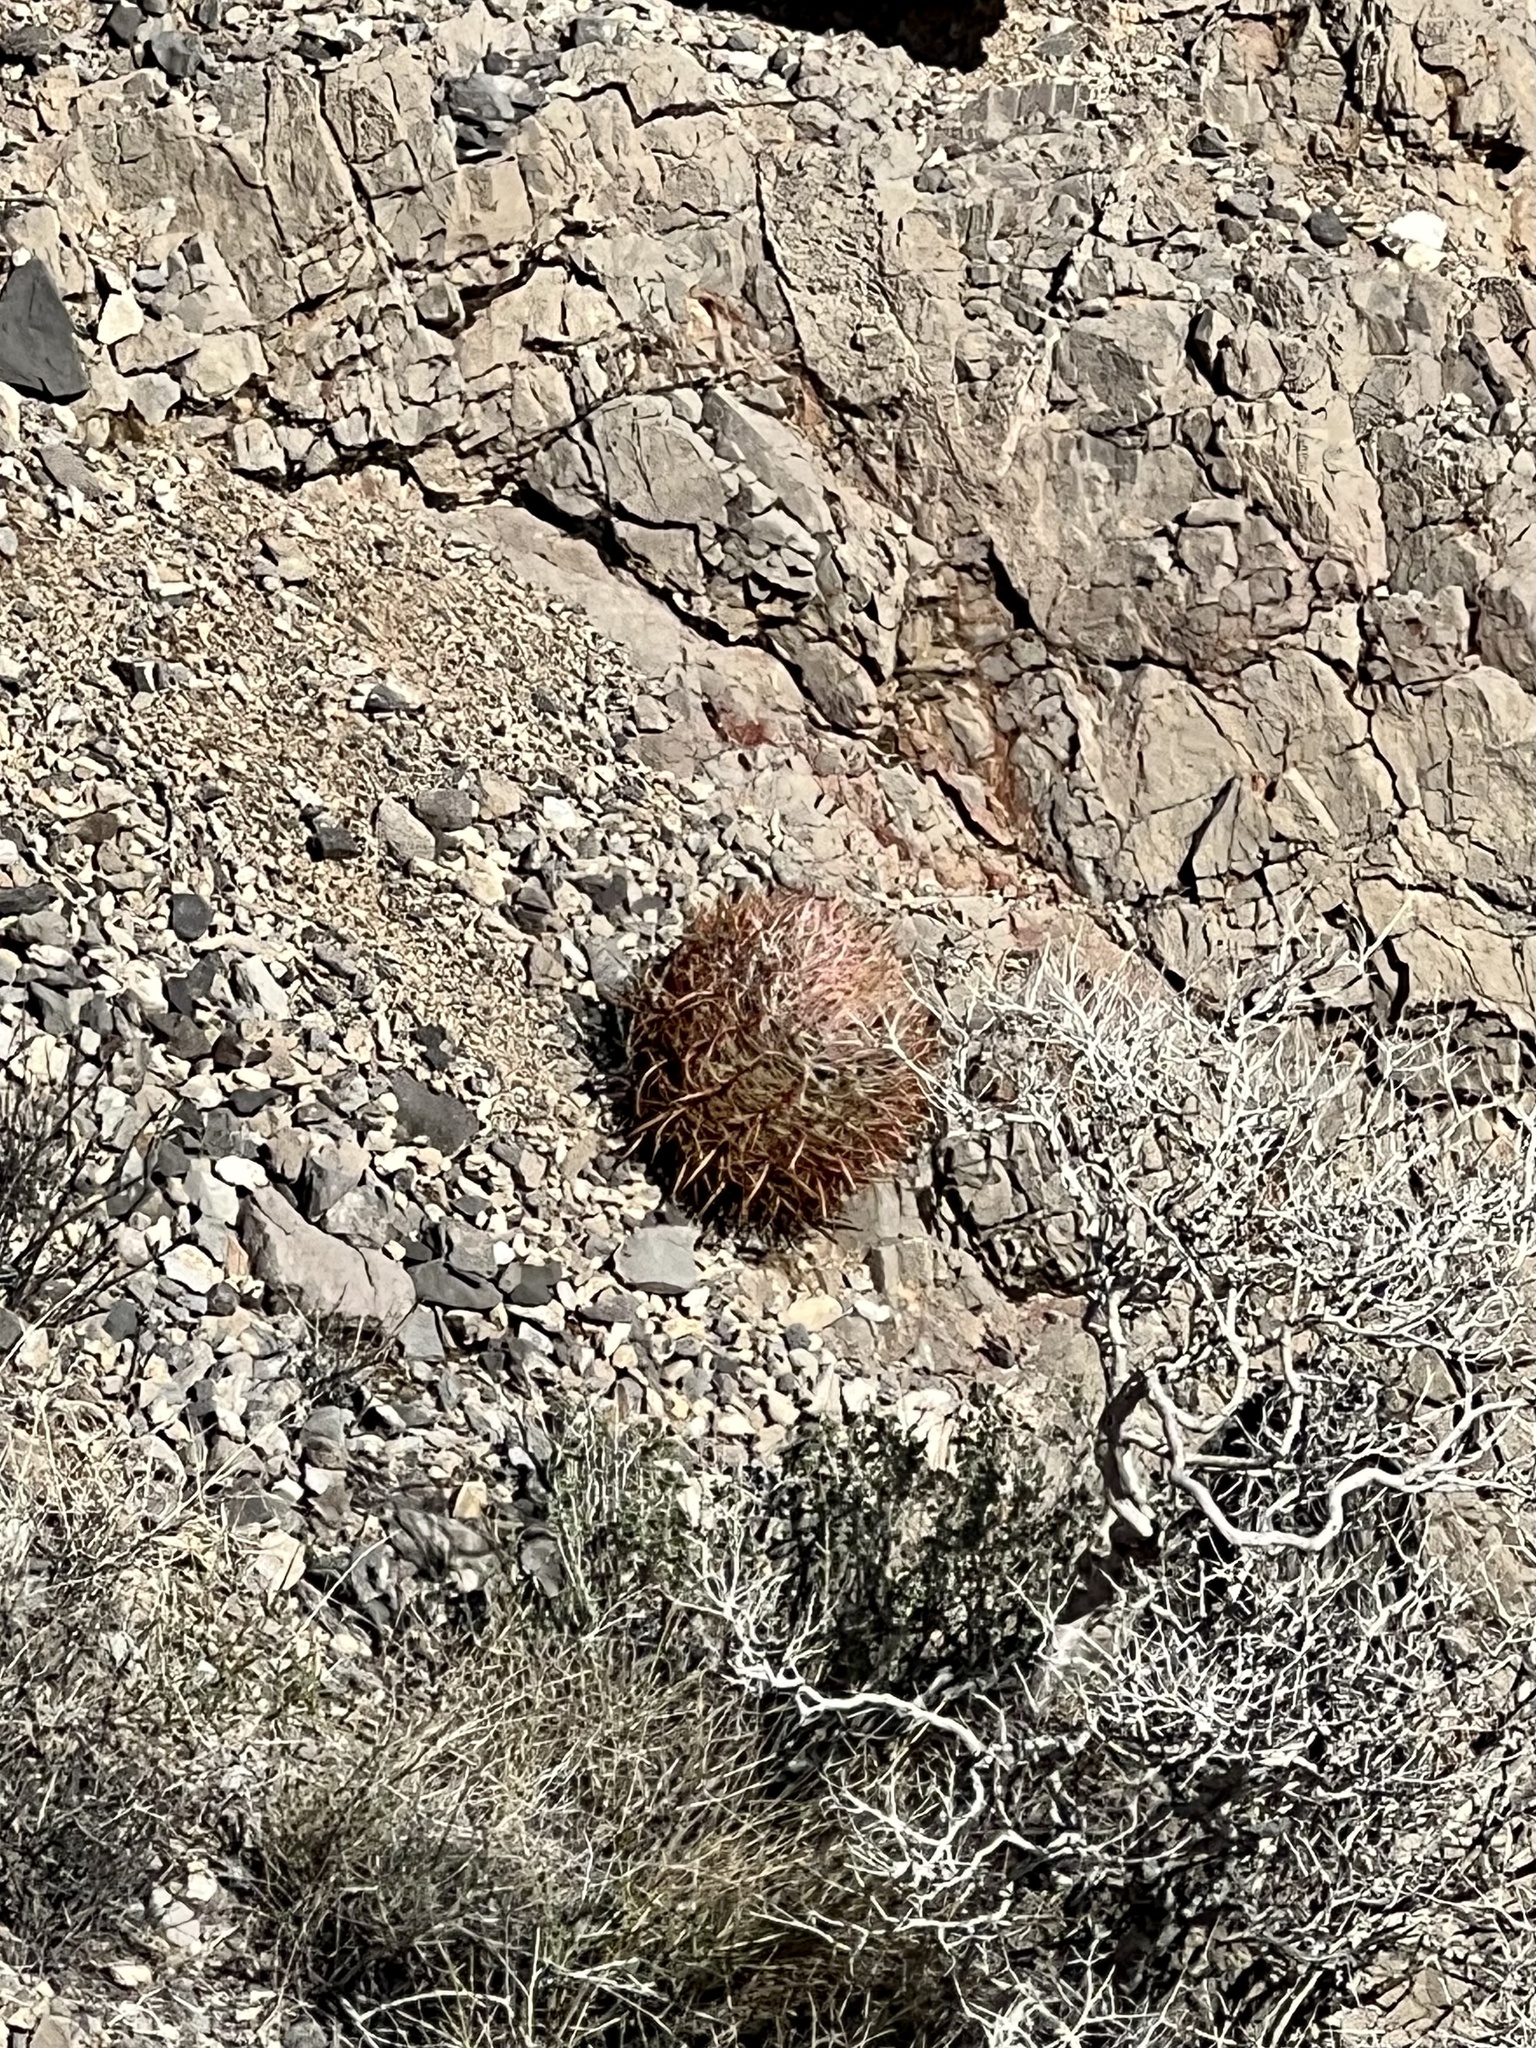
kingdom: Plantae
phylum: Tracheophyta
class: Magnoliopsida
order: Caryophyllales
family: Cactaceae
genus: Ferocactus
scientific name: Ferocactus cylindraceus
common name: California barrel cactus
